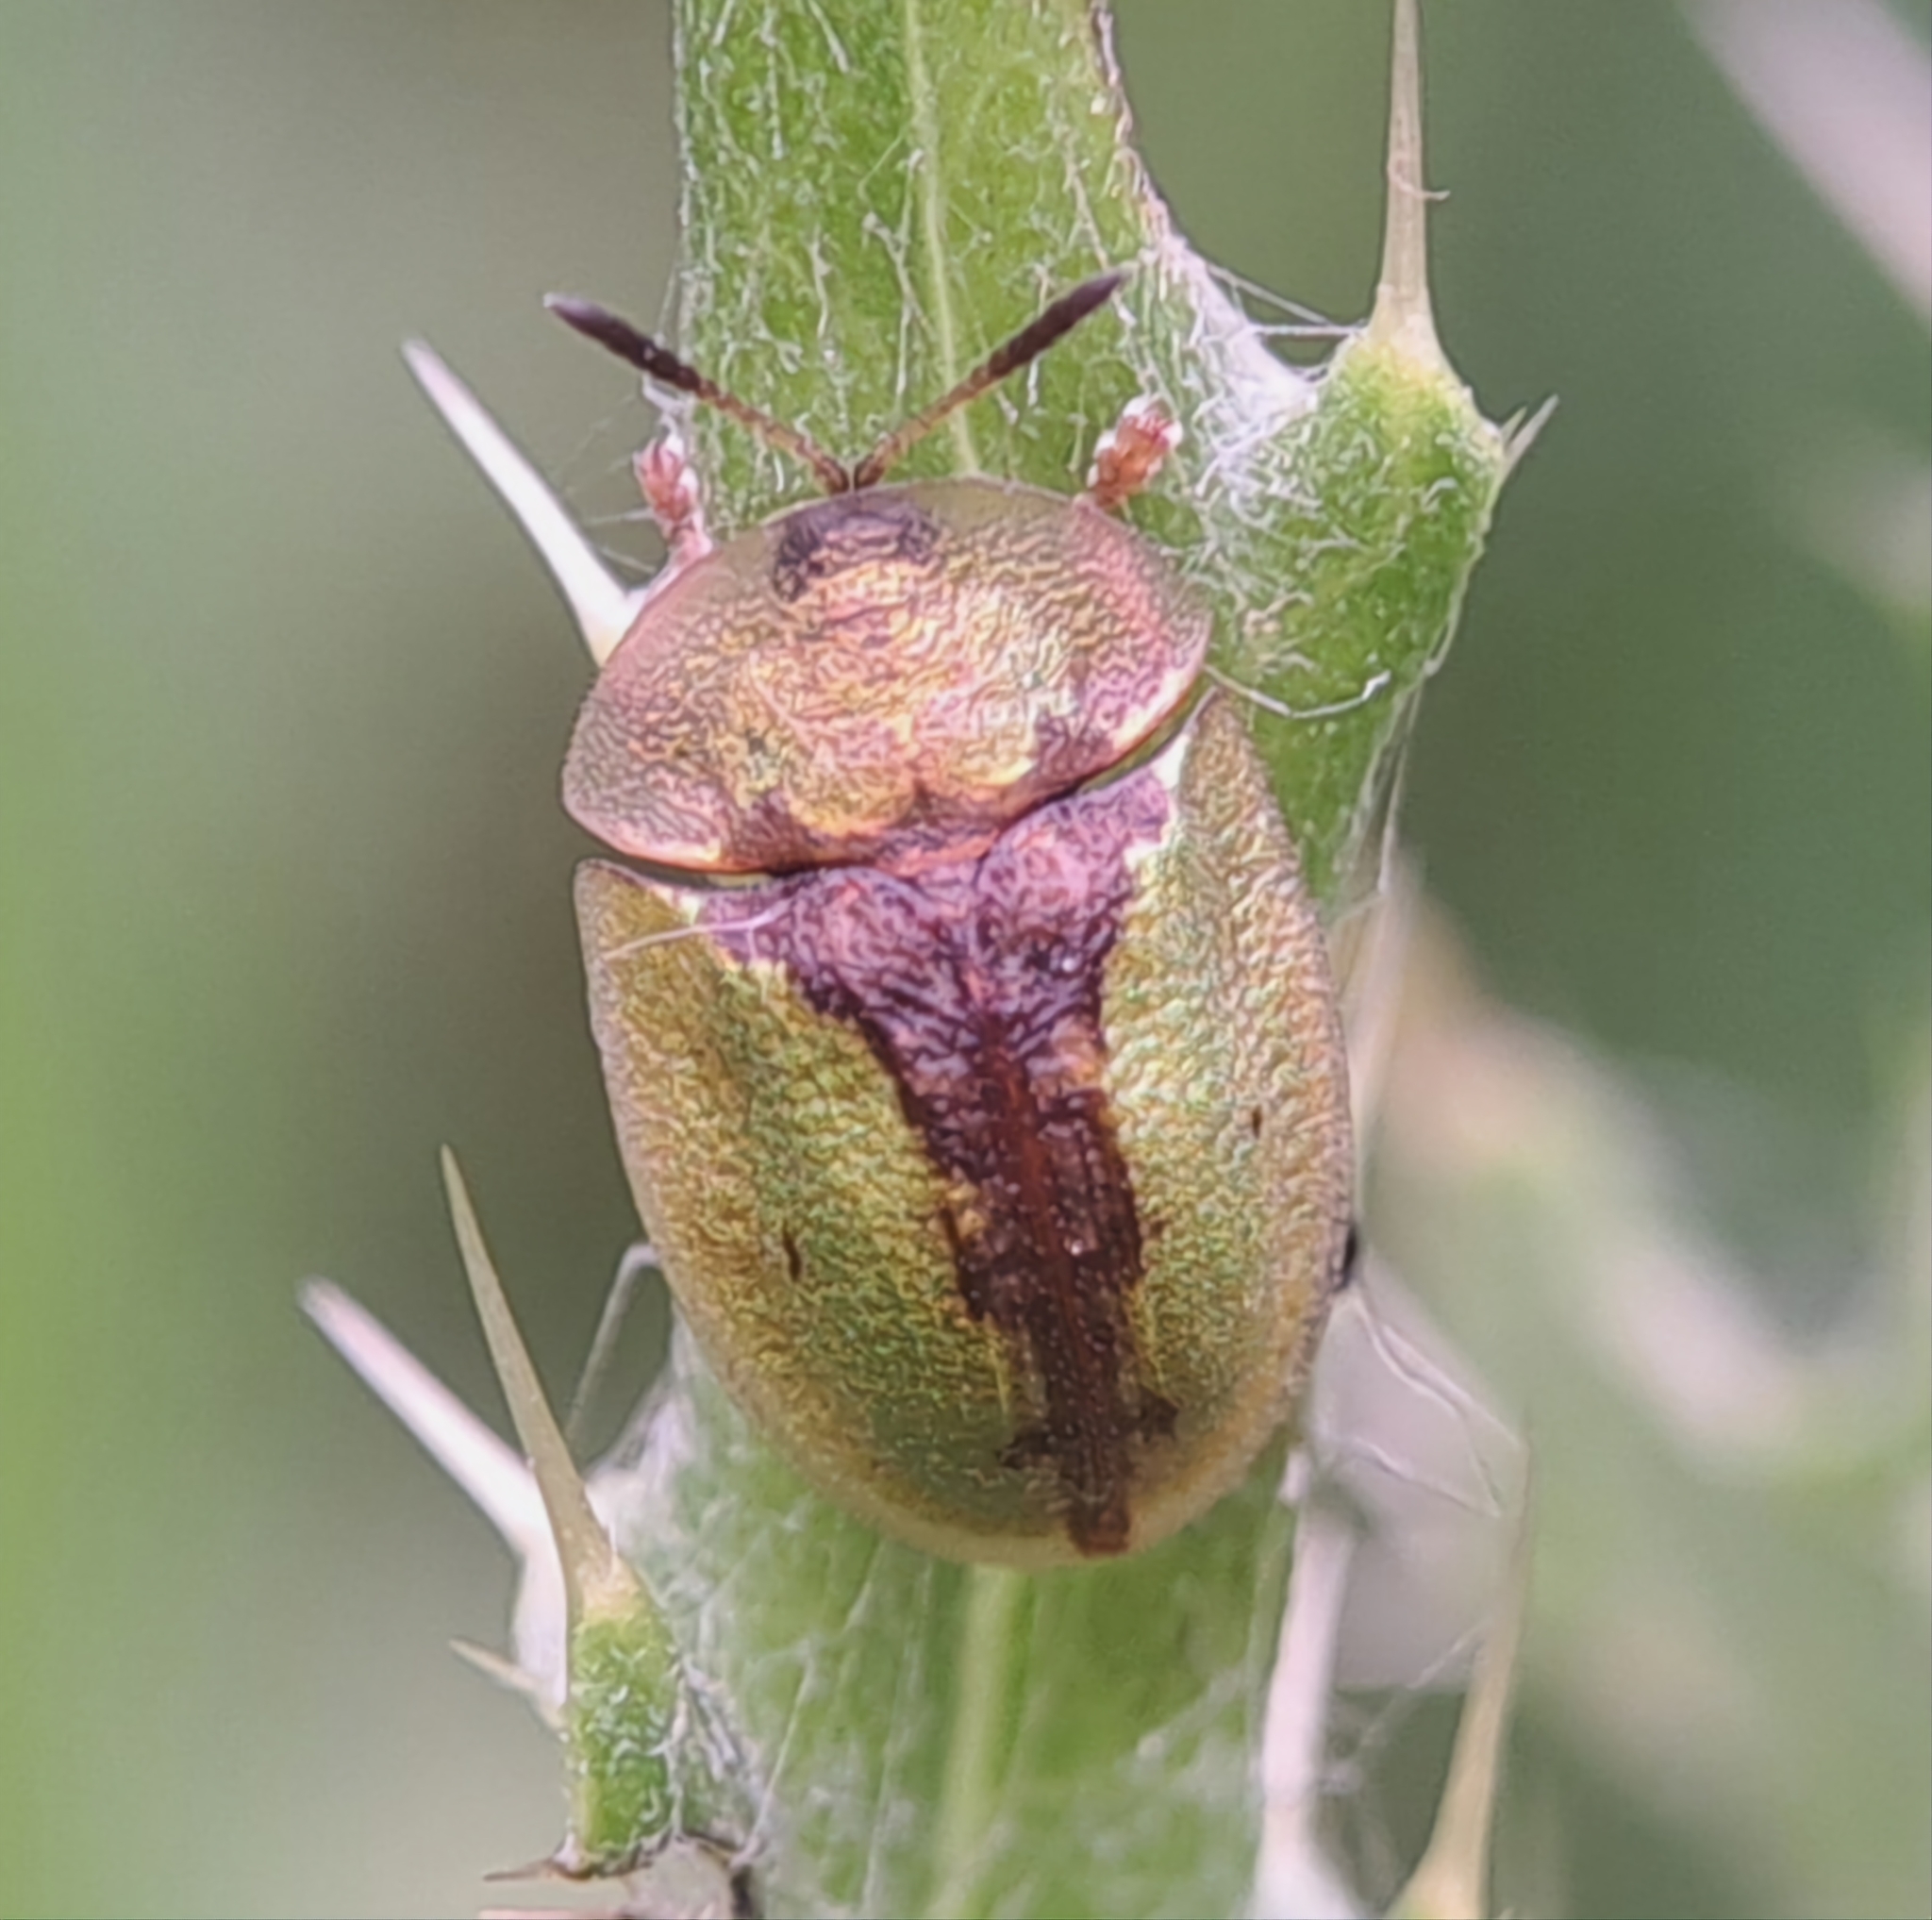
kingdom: Animalia
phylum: Arthropoda
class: Insecta
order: Coleoptera
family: Chrysomelidae
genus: Cassida
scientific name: Cassida vibex
